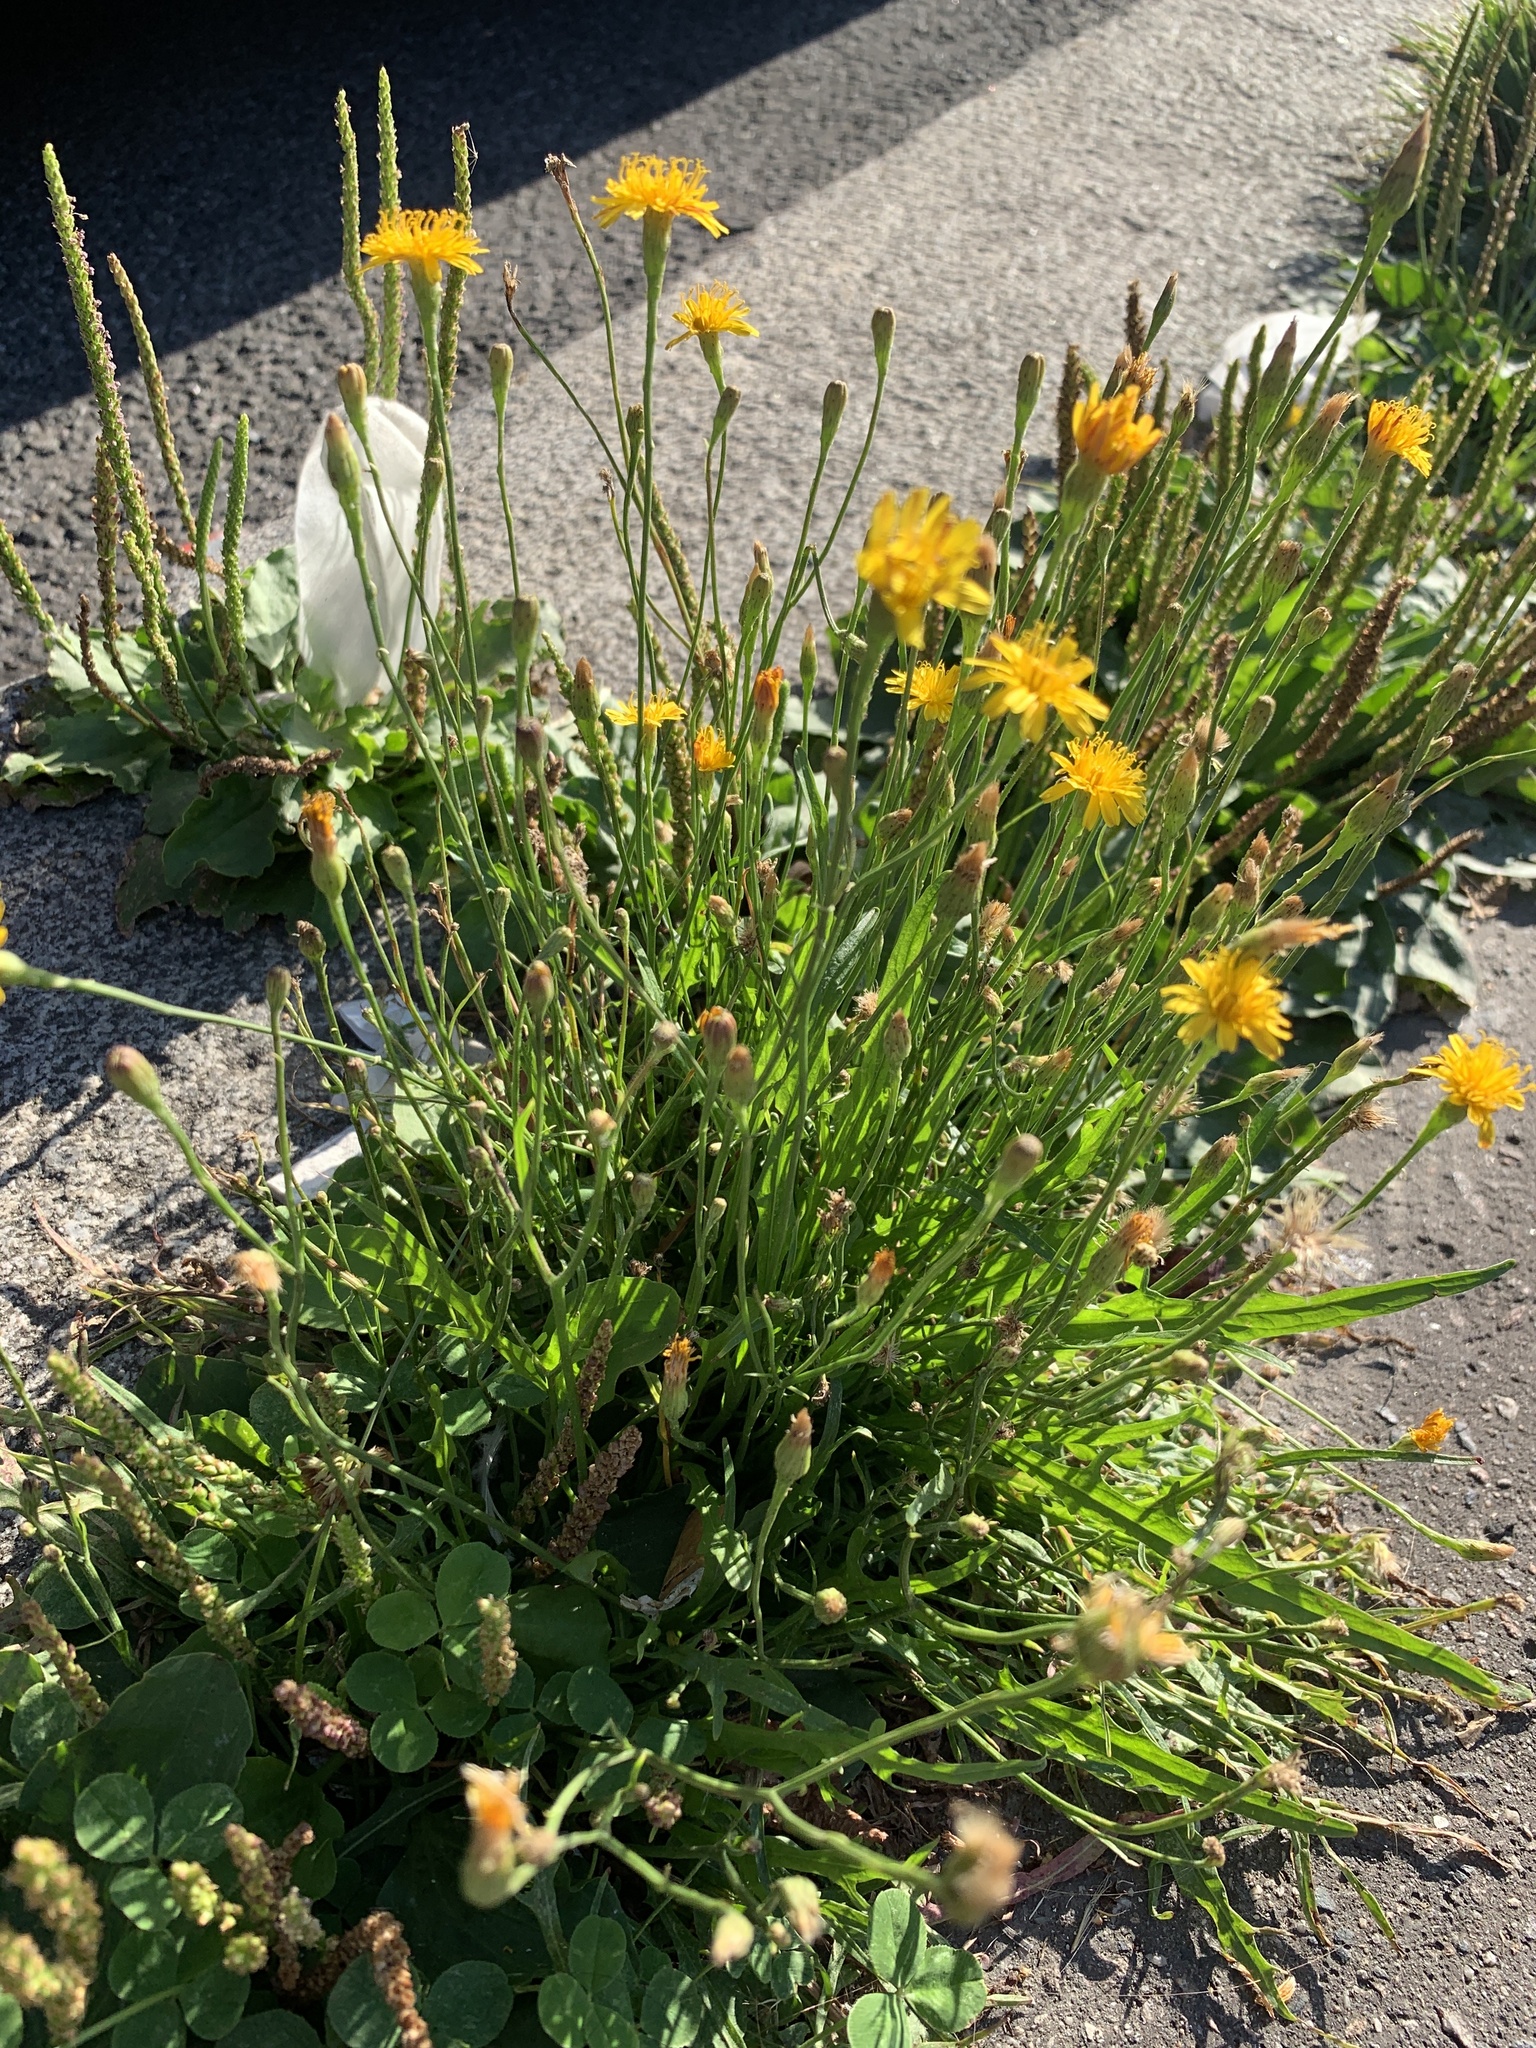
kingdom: Plantae
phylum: Tracheophyta
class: Magnoliopsida
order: Asterales
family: Asteraceae
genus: Scorzoneroides
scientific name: Scorzoneroides autumnalis
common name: Autumn hawkbit
